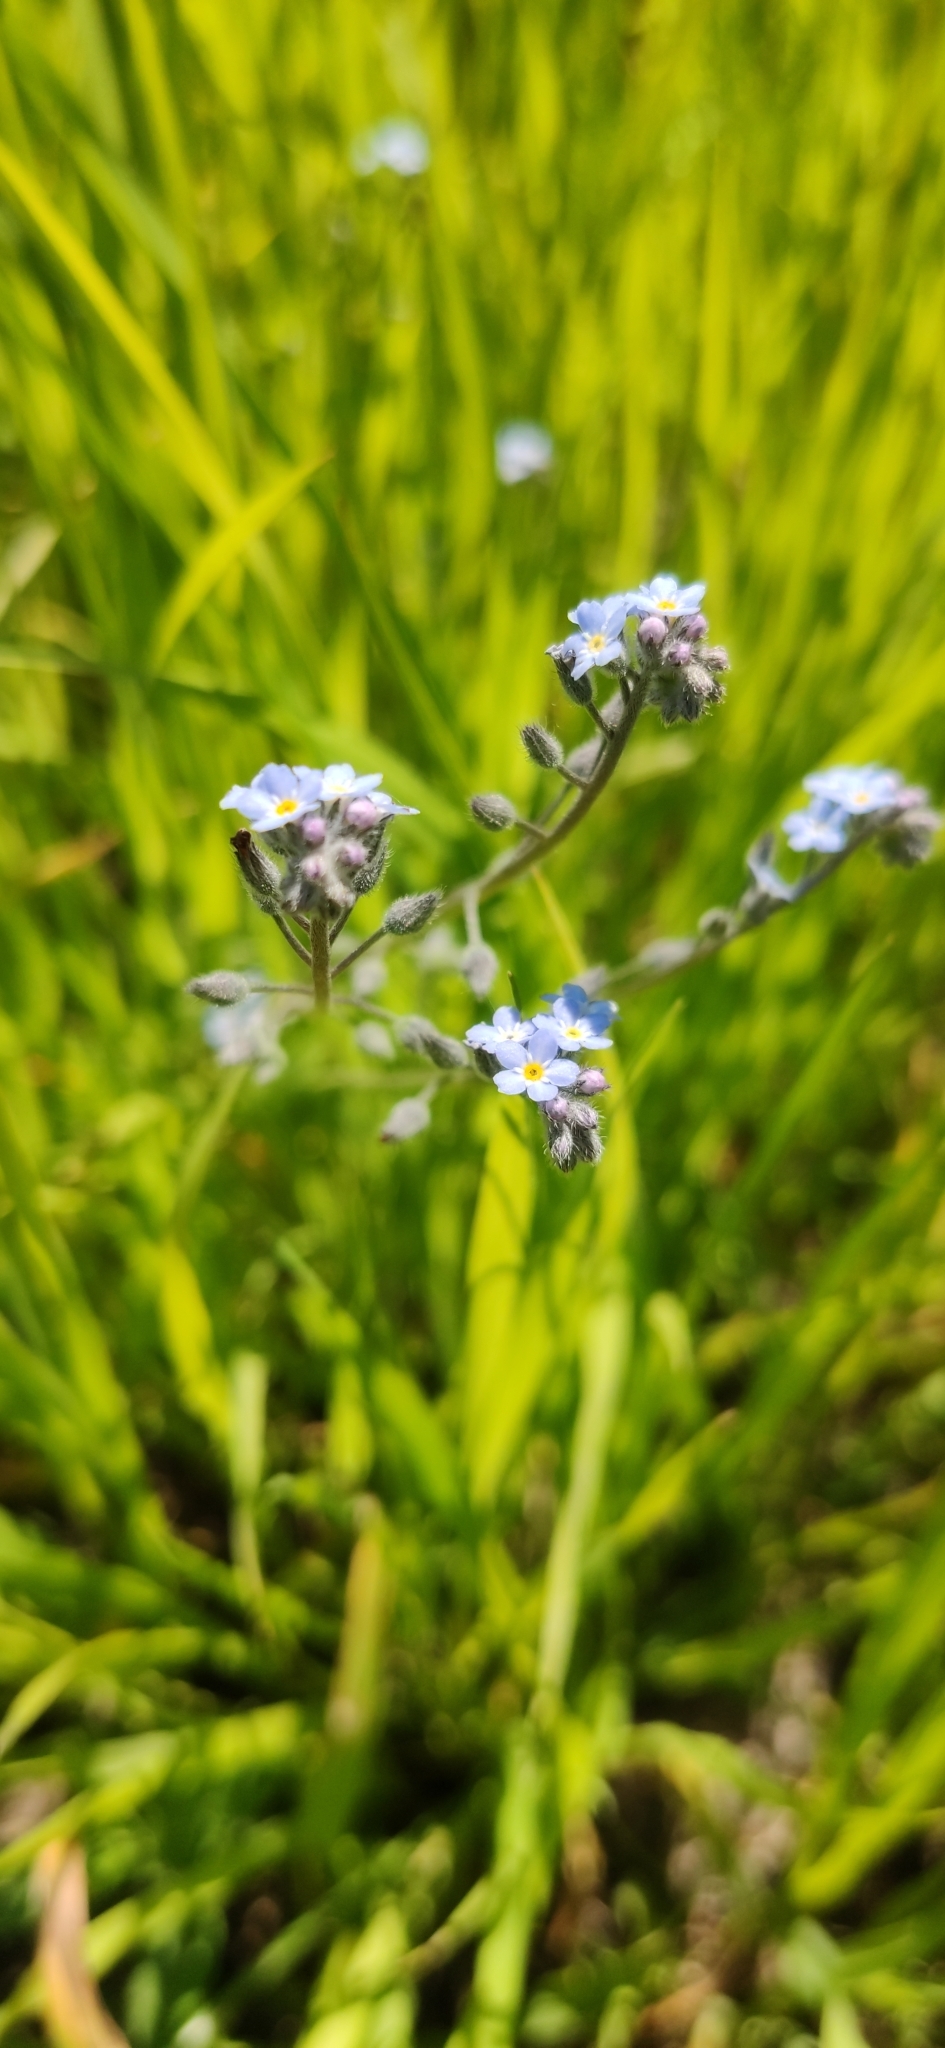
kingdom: Plantae
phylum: Tracheophyta
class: Magnoliopsida
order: Boraginales
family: Boraginaceae
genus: Myosotis
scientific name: Myosotis arvensis
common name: Field forget-me-not
